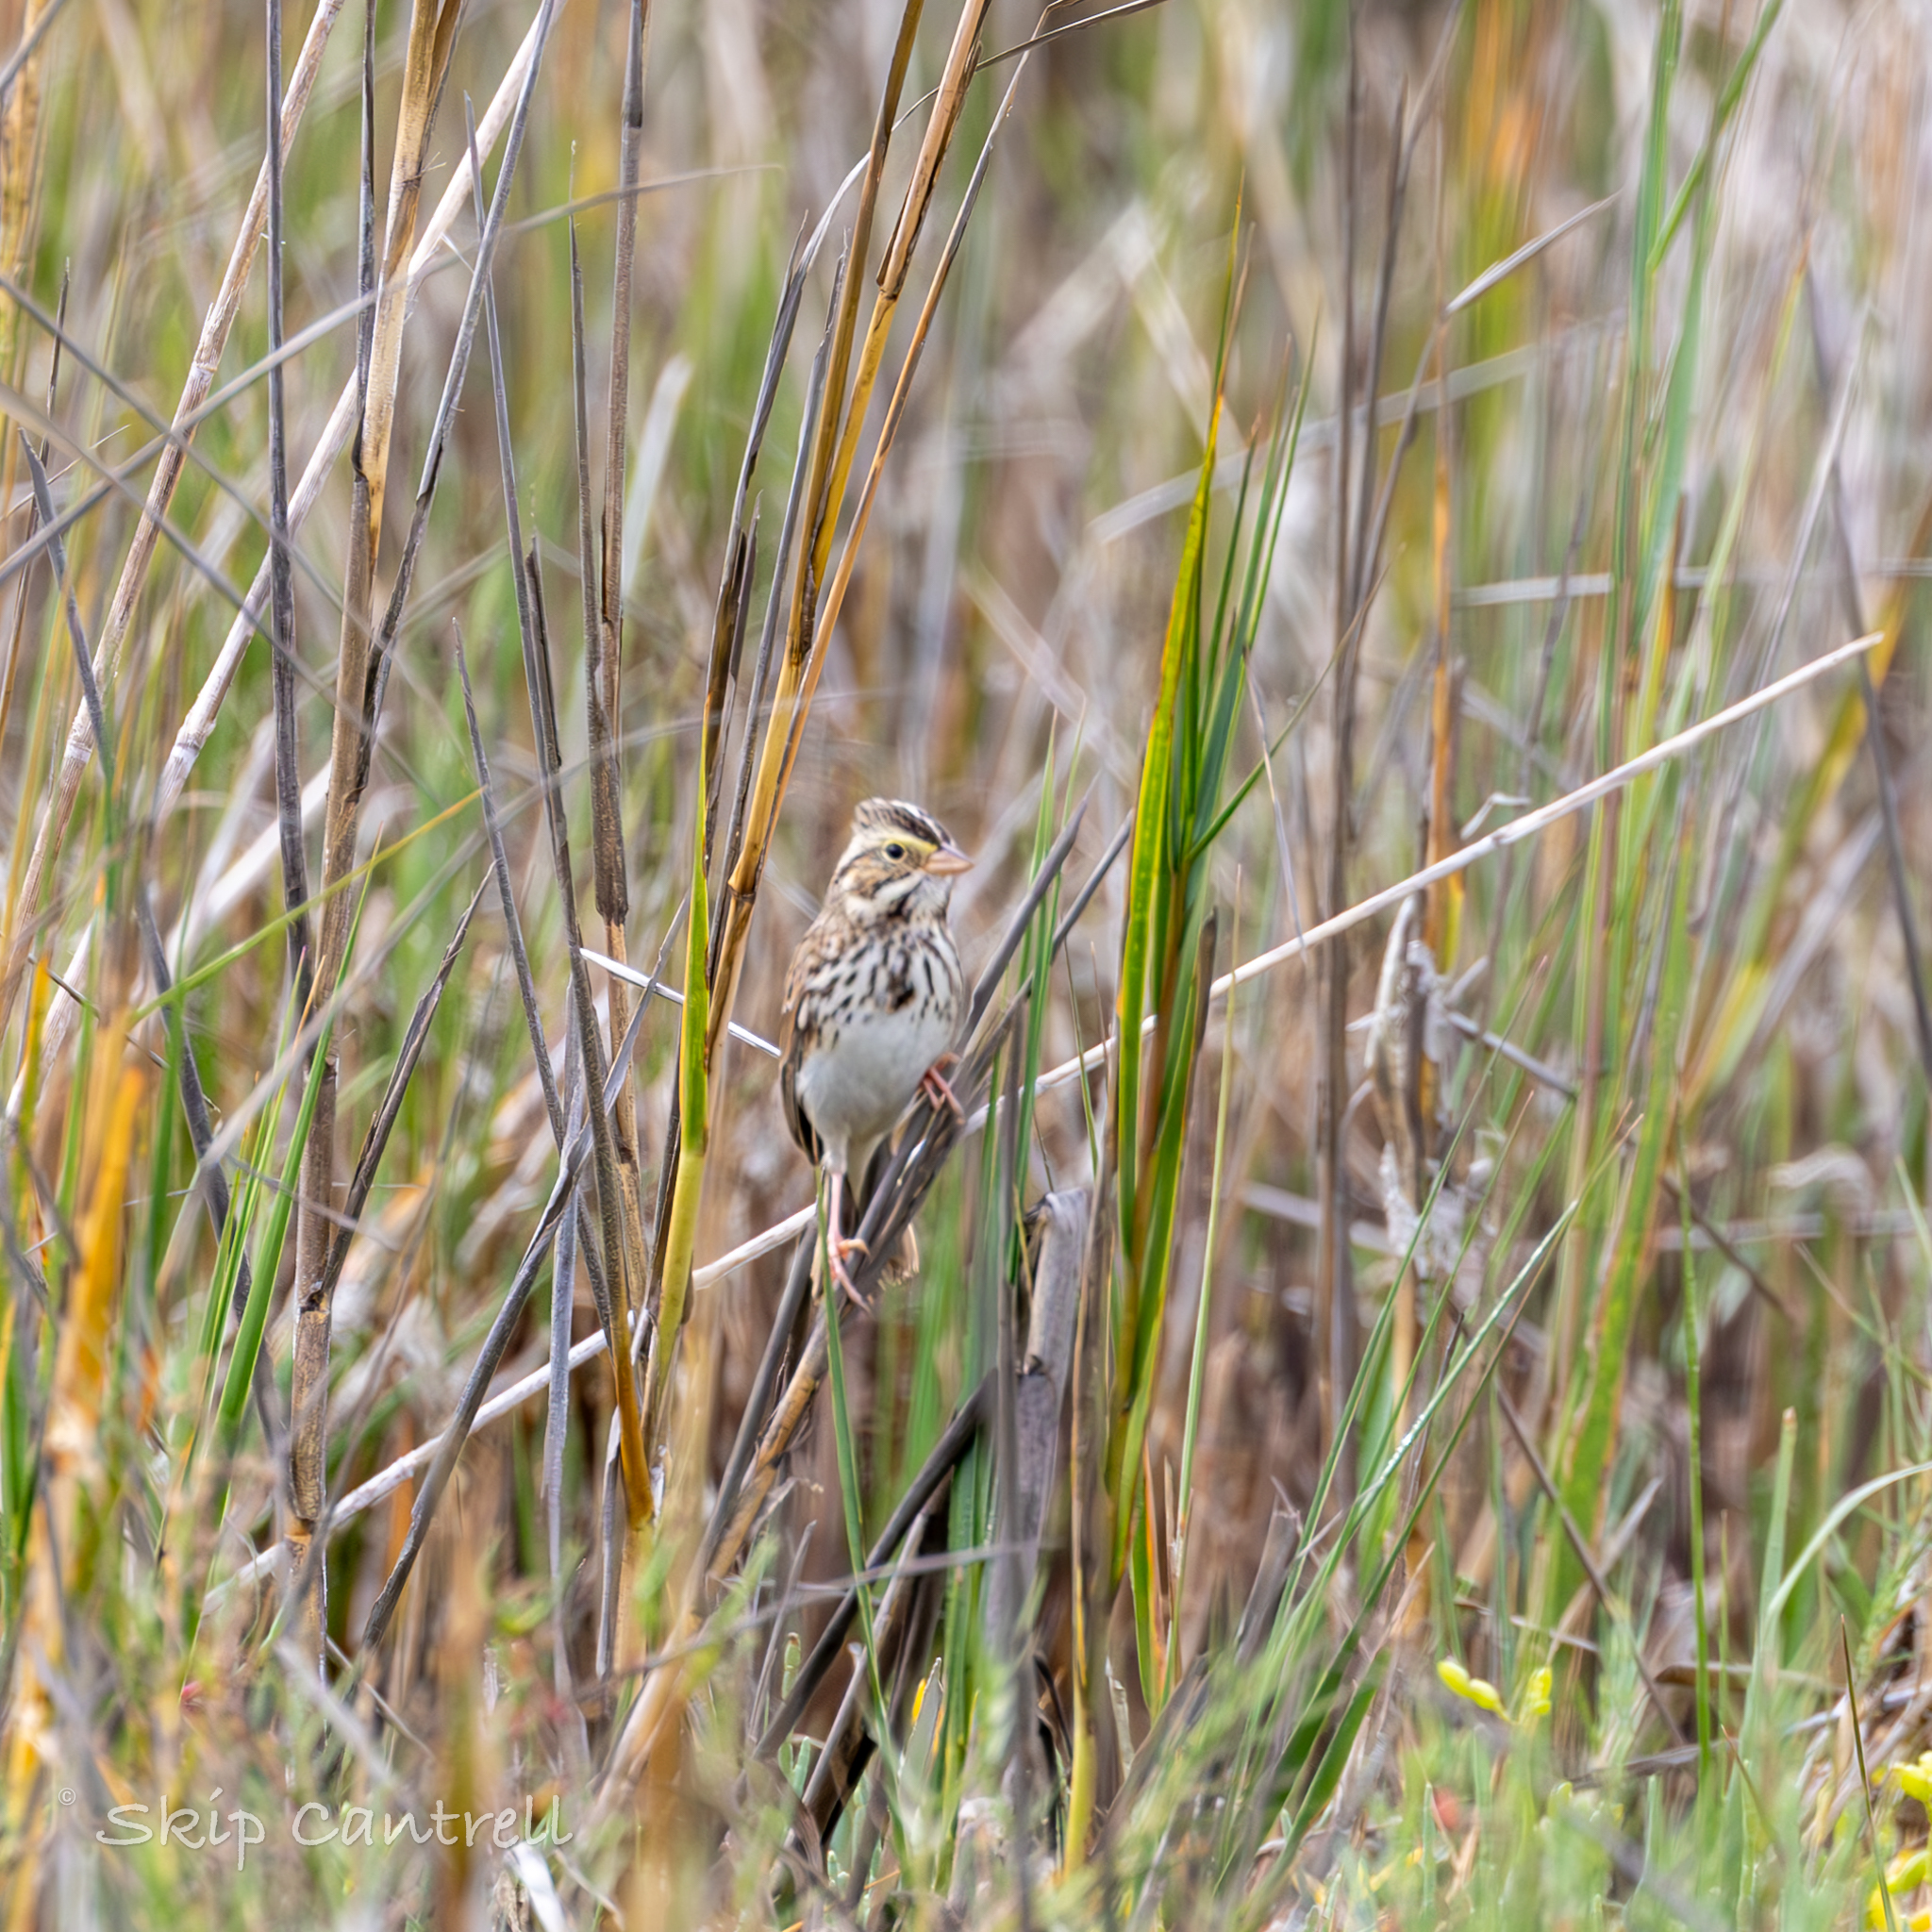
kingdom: Animalia
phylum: Chordata
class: Aves
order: Passeriformes
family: Passerellidae
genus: Passerculus
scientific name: Passerculus sandwichensis
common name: Savannah sparrow
